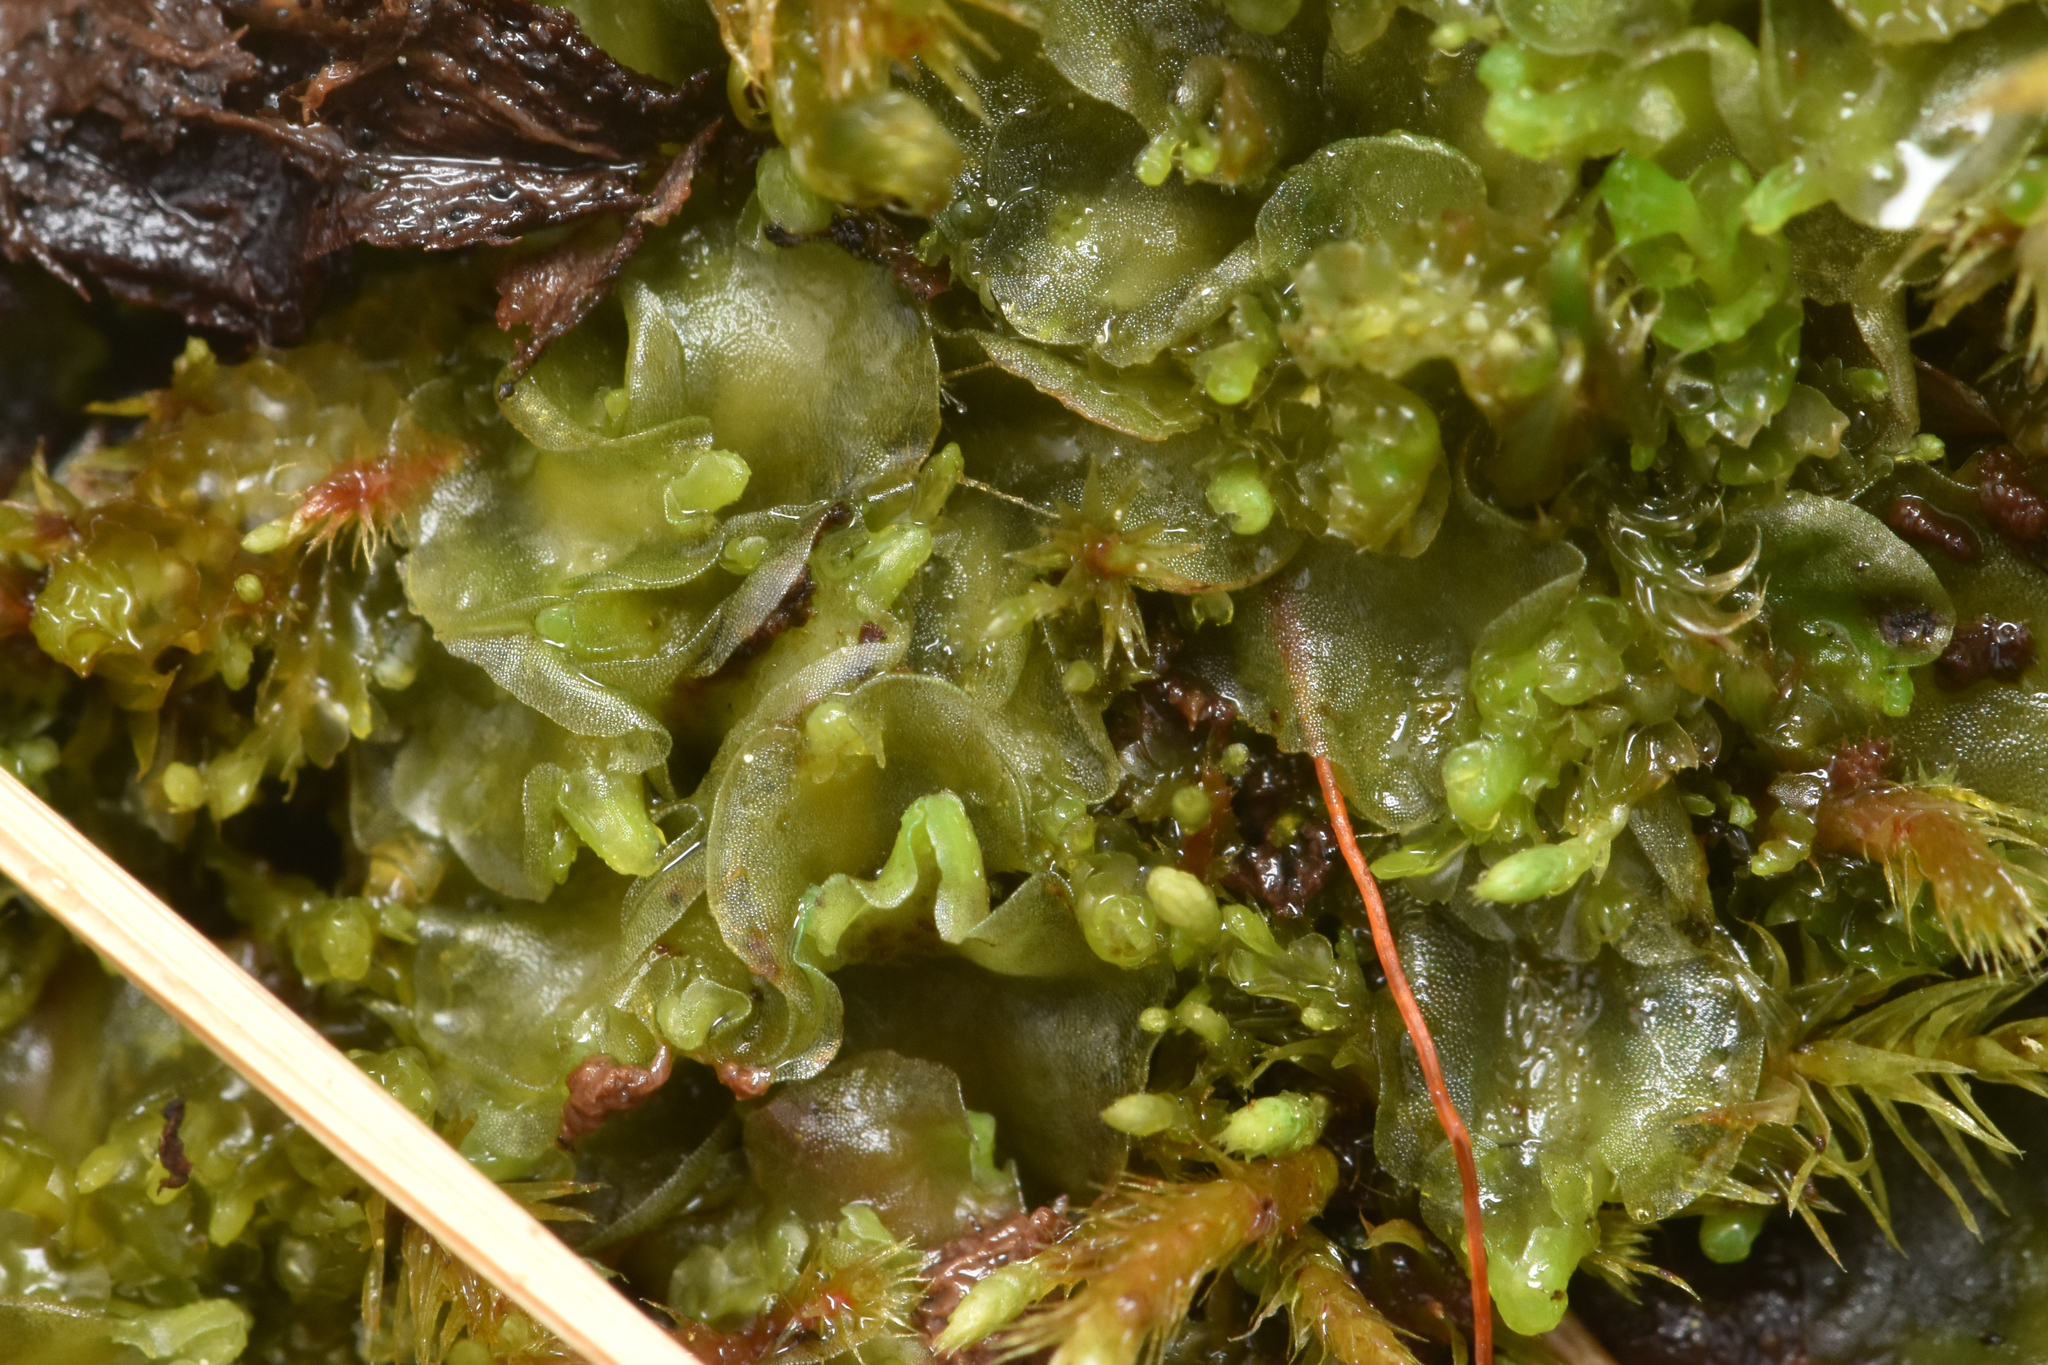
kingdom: Plantae
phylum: Marchantiophyta
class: Jungermanniopsida
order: Pelliales
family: Pelliaceae
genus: Pellia
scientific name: Pellia neesiana
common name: Nees  pellia
